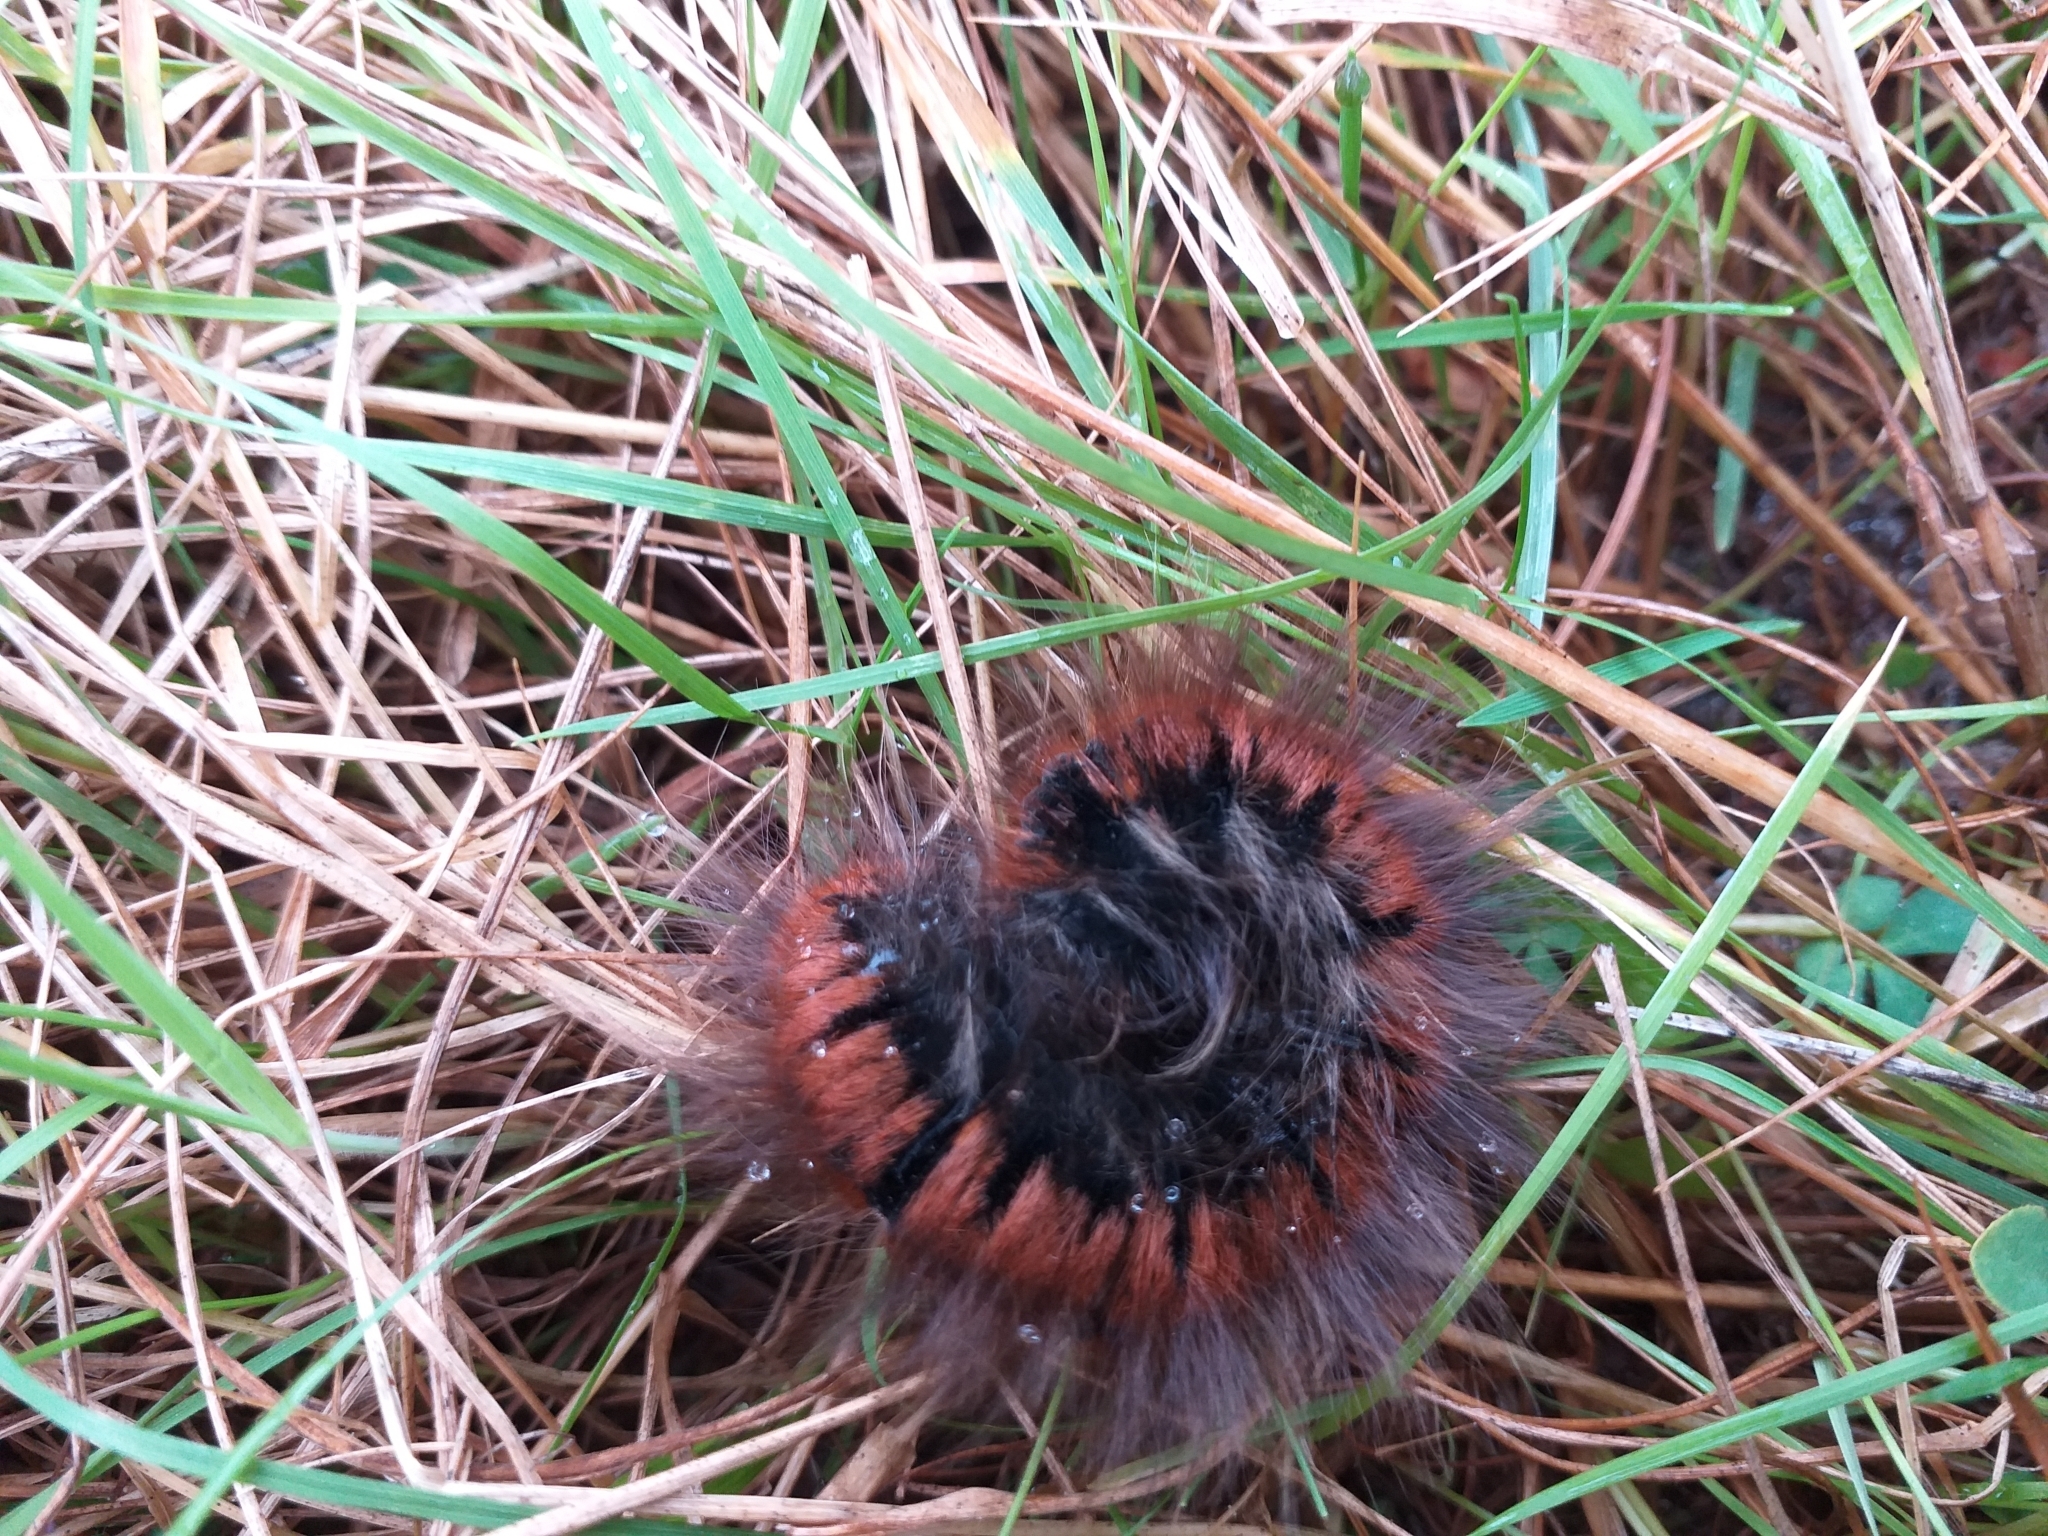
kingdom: Animalia
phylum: Arthropoda
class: Insecta
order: Lepidoptera
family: Lasiocampidae
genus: Macrothylacia
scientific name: Macrothylacia rubi
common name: Fox moth
